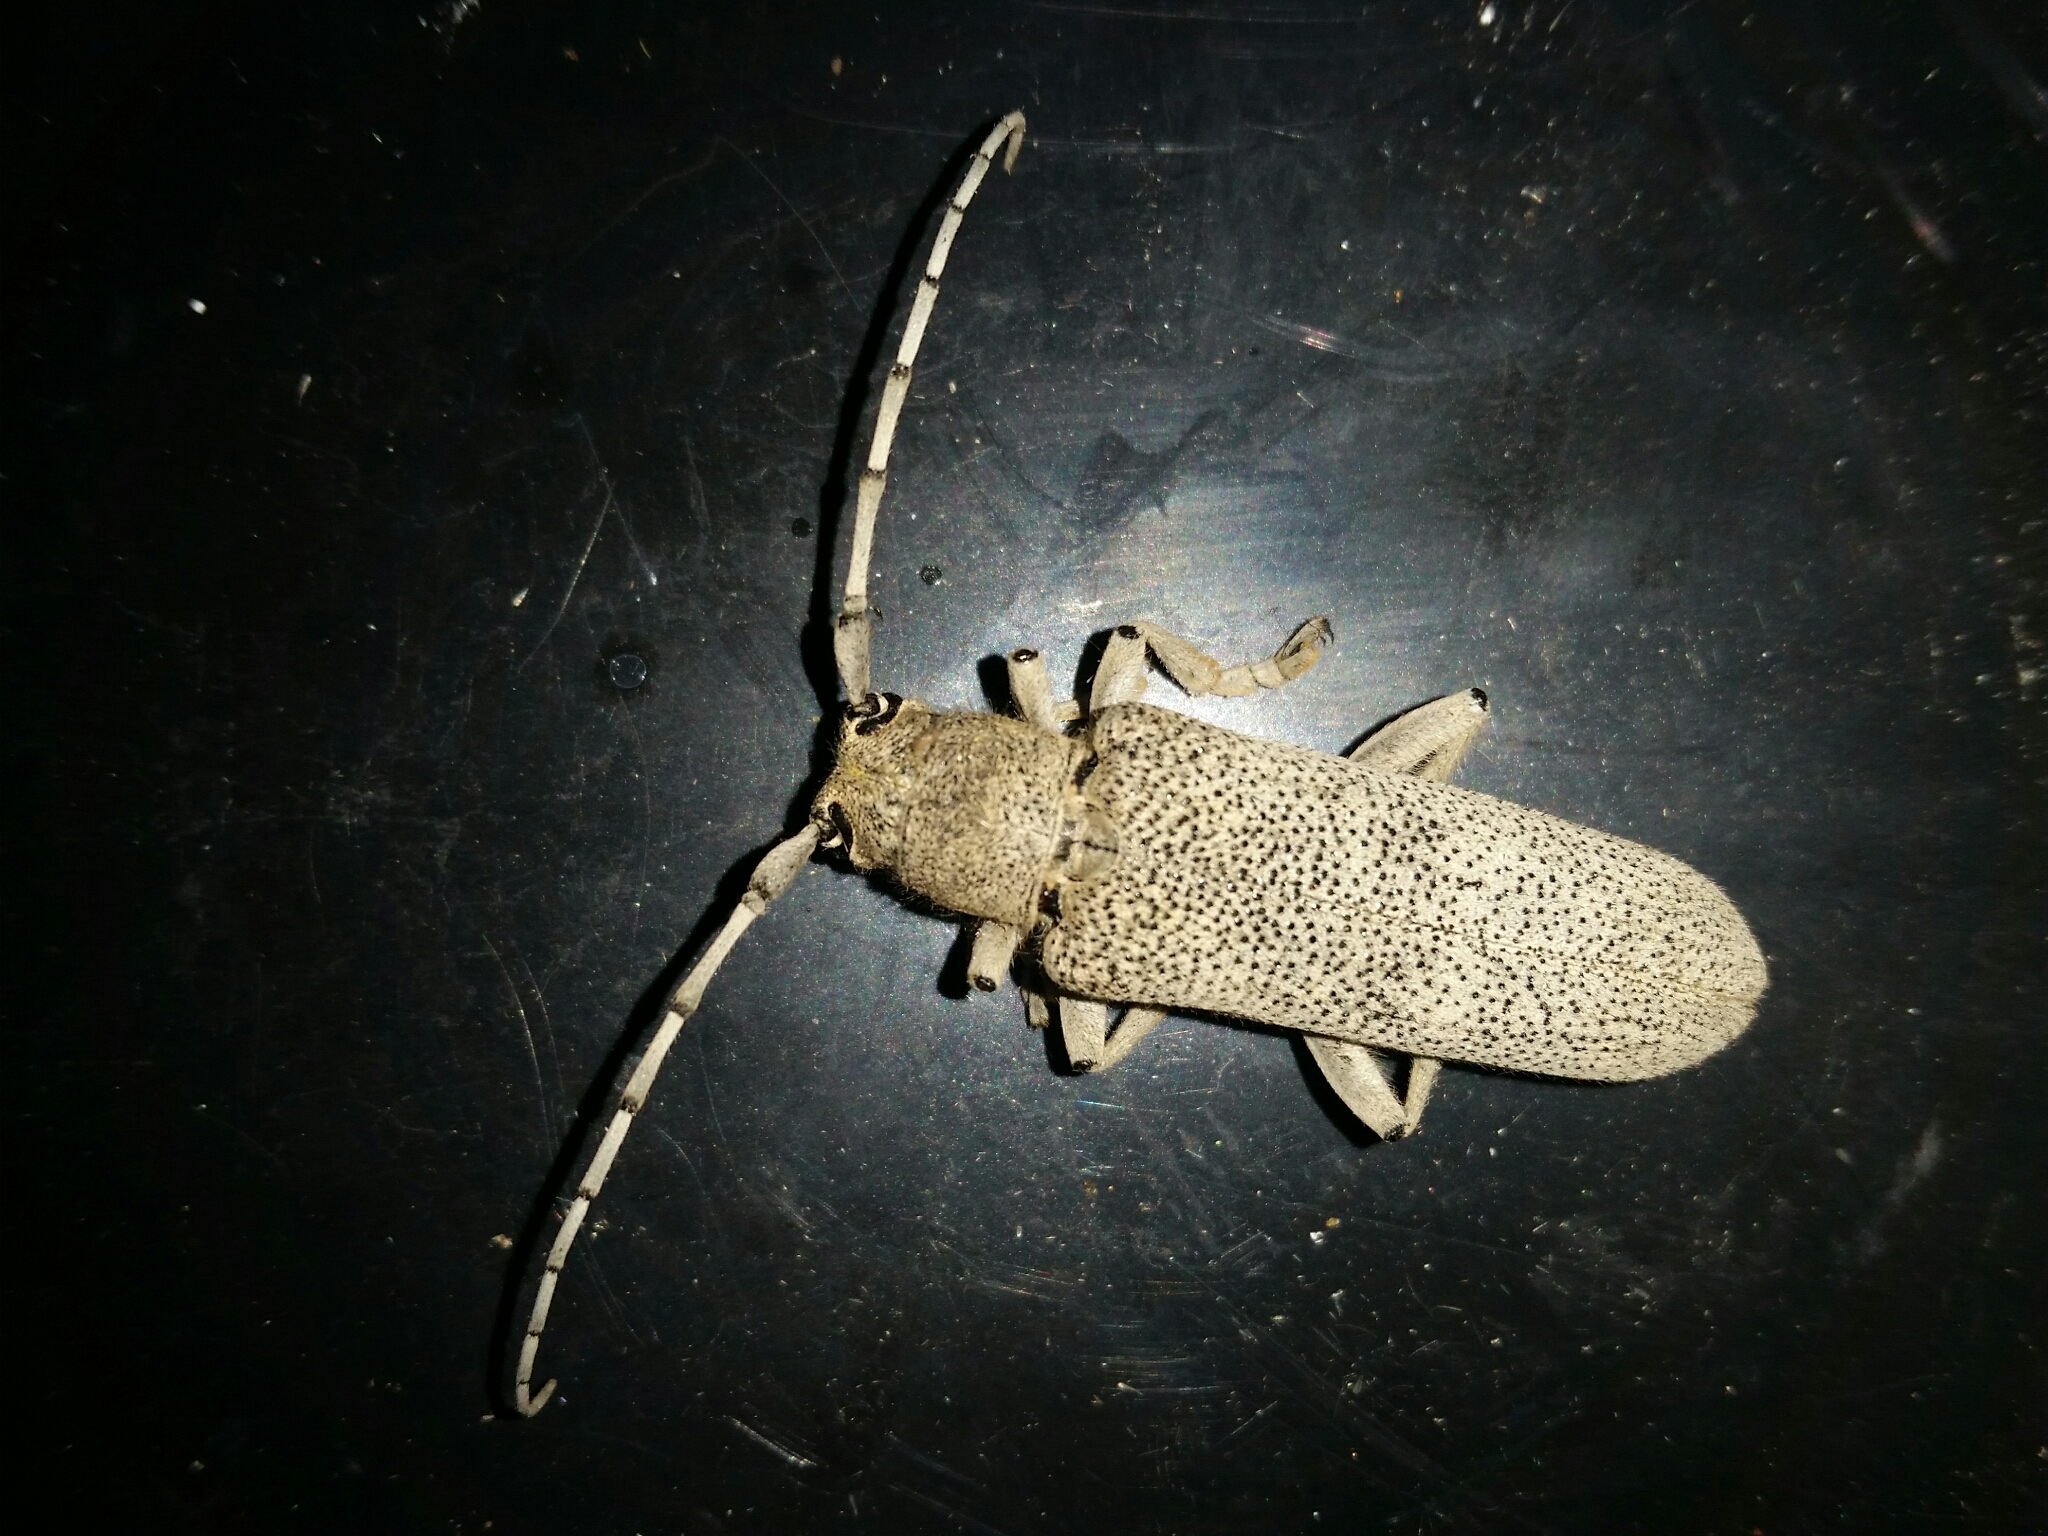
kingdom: Animalia
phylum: Arthropoda
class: Insecta
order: Coleoptera
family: Cerambycidae
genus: Saperda
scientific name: Saperda carcharias
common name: Poplar borer
